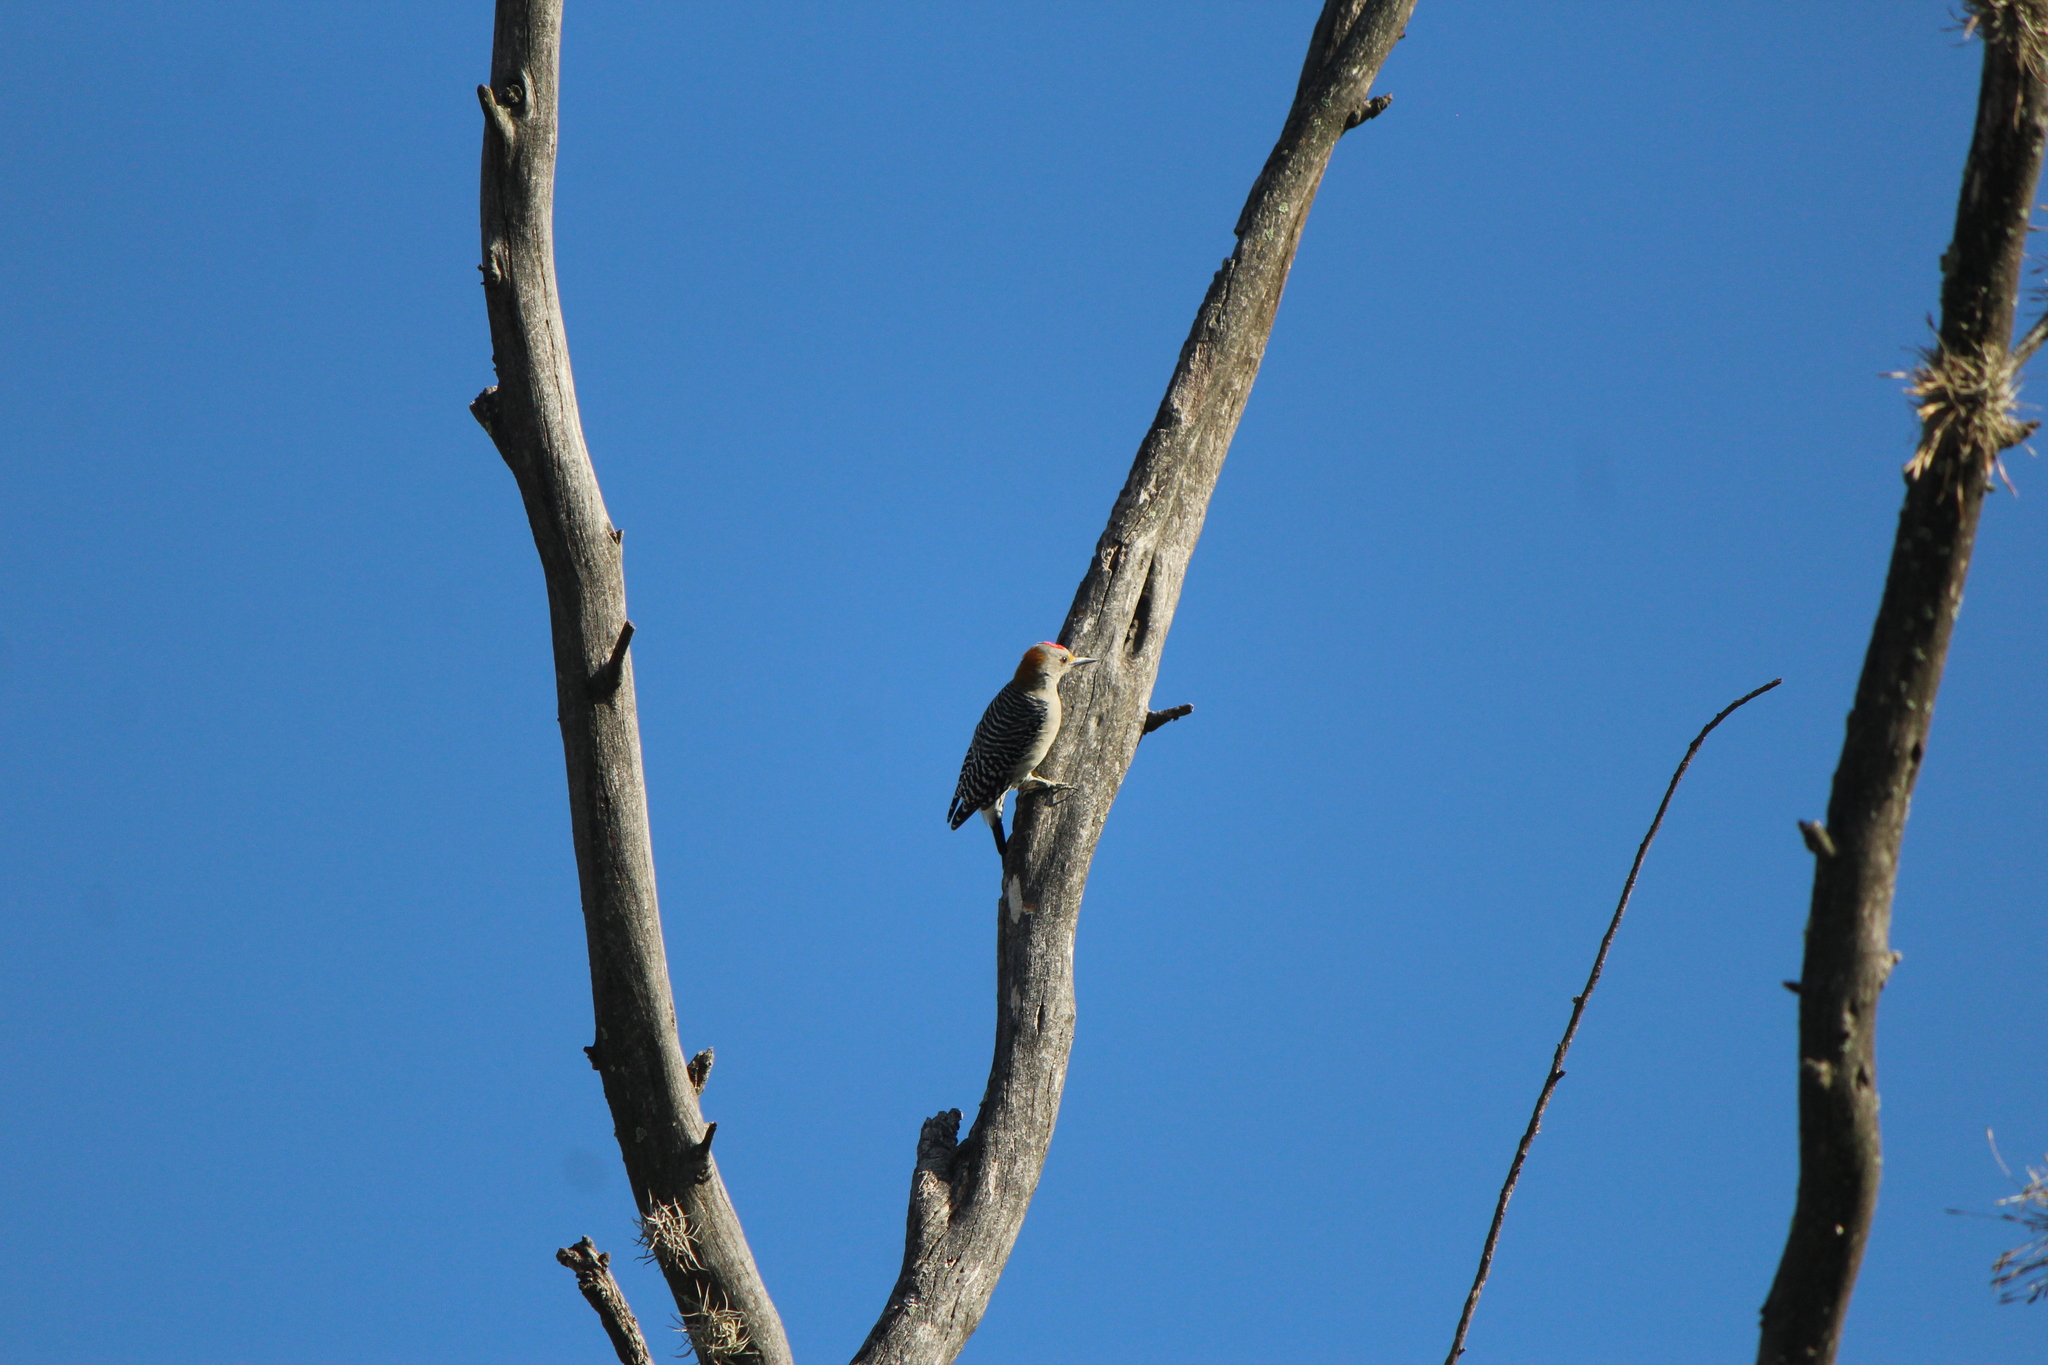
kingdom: Animalia
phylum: Chordata
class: Aves
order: Piciformes
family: Picidae
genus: Melanerpes
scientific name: Melanerpes aurifrons
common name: Golden-fronted woodpecker
